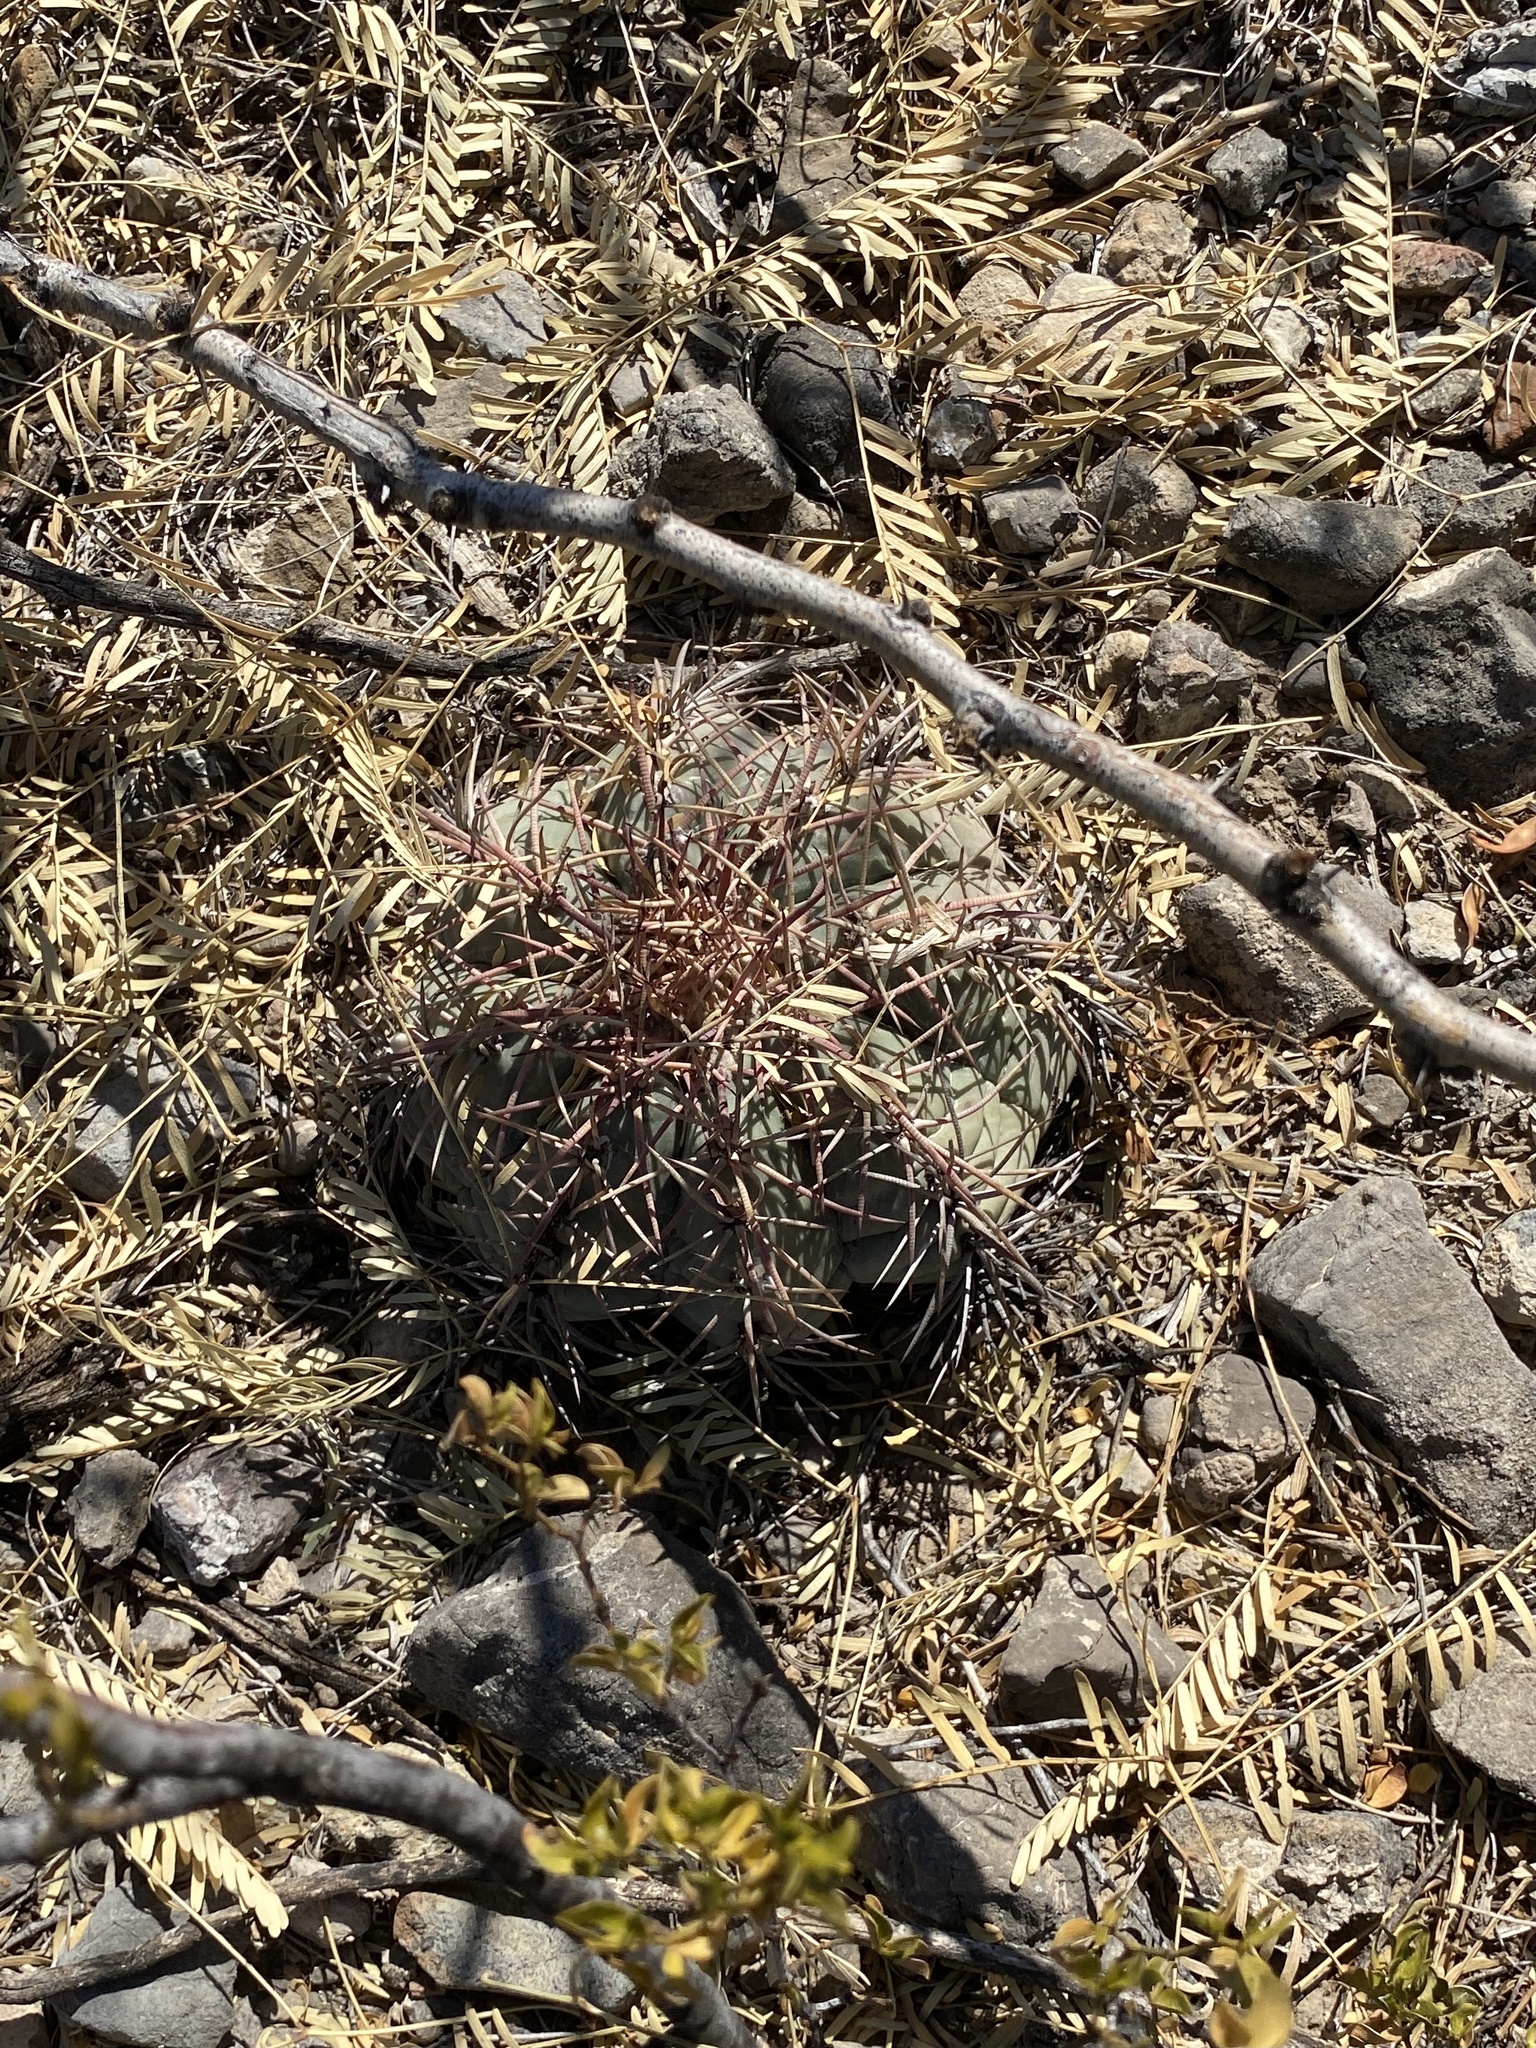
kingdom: Plantae
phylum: Tracheophyta
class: Magnoliopsida
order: Caryophyllales
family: Cactaceae
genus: Echinocactus
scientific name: Echinocactus horizonthalonius
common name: Devilshead
